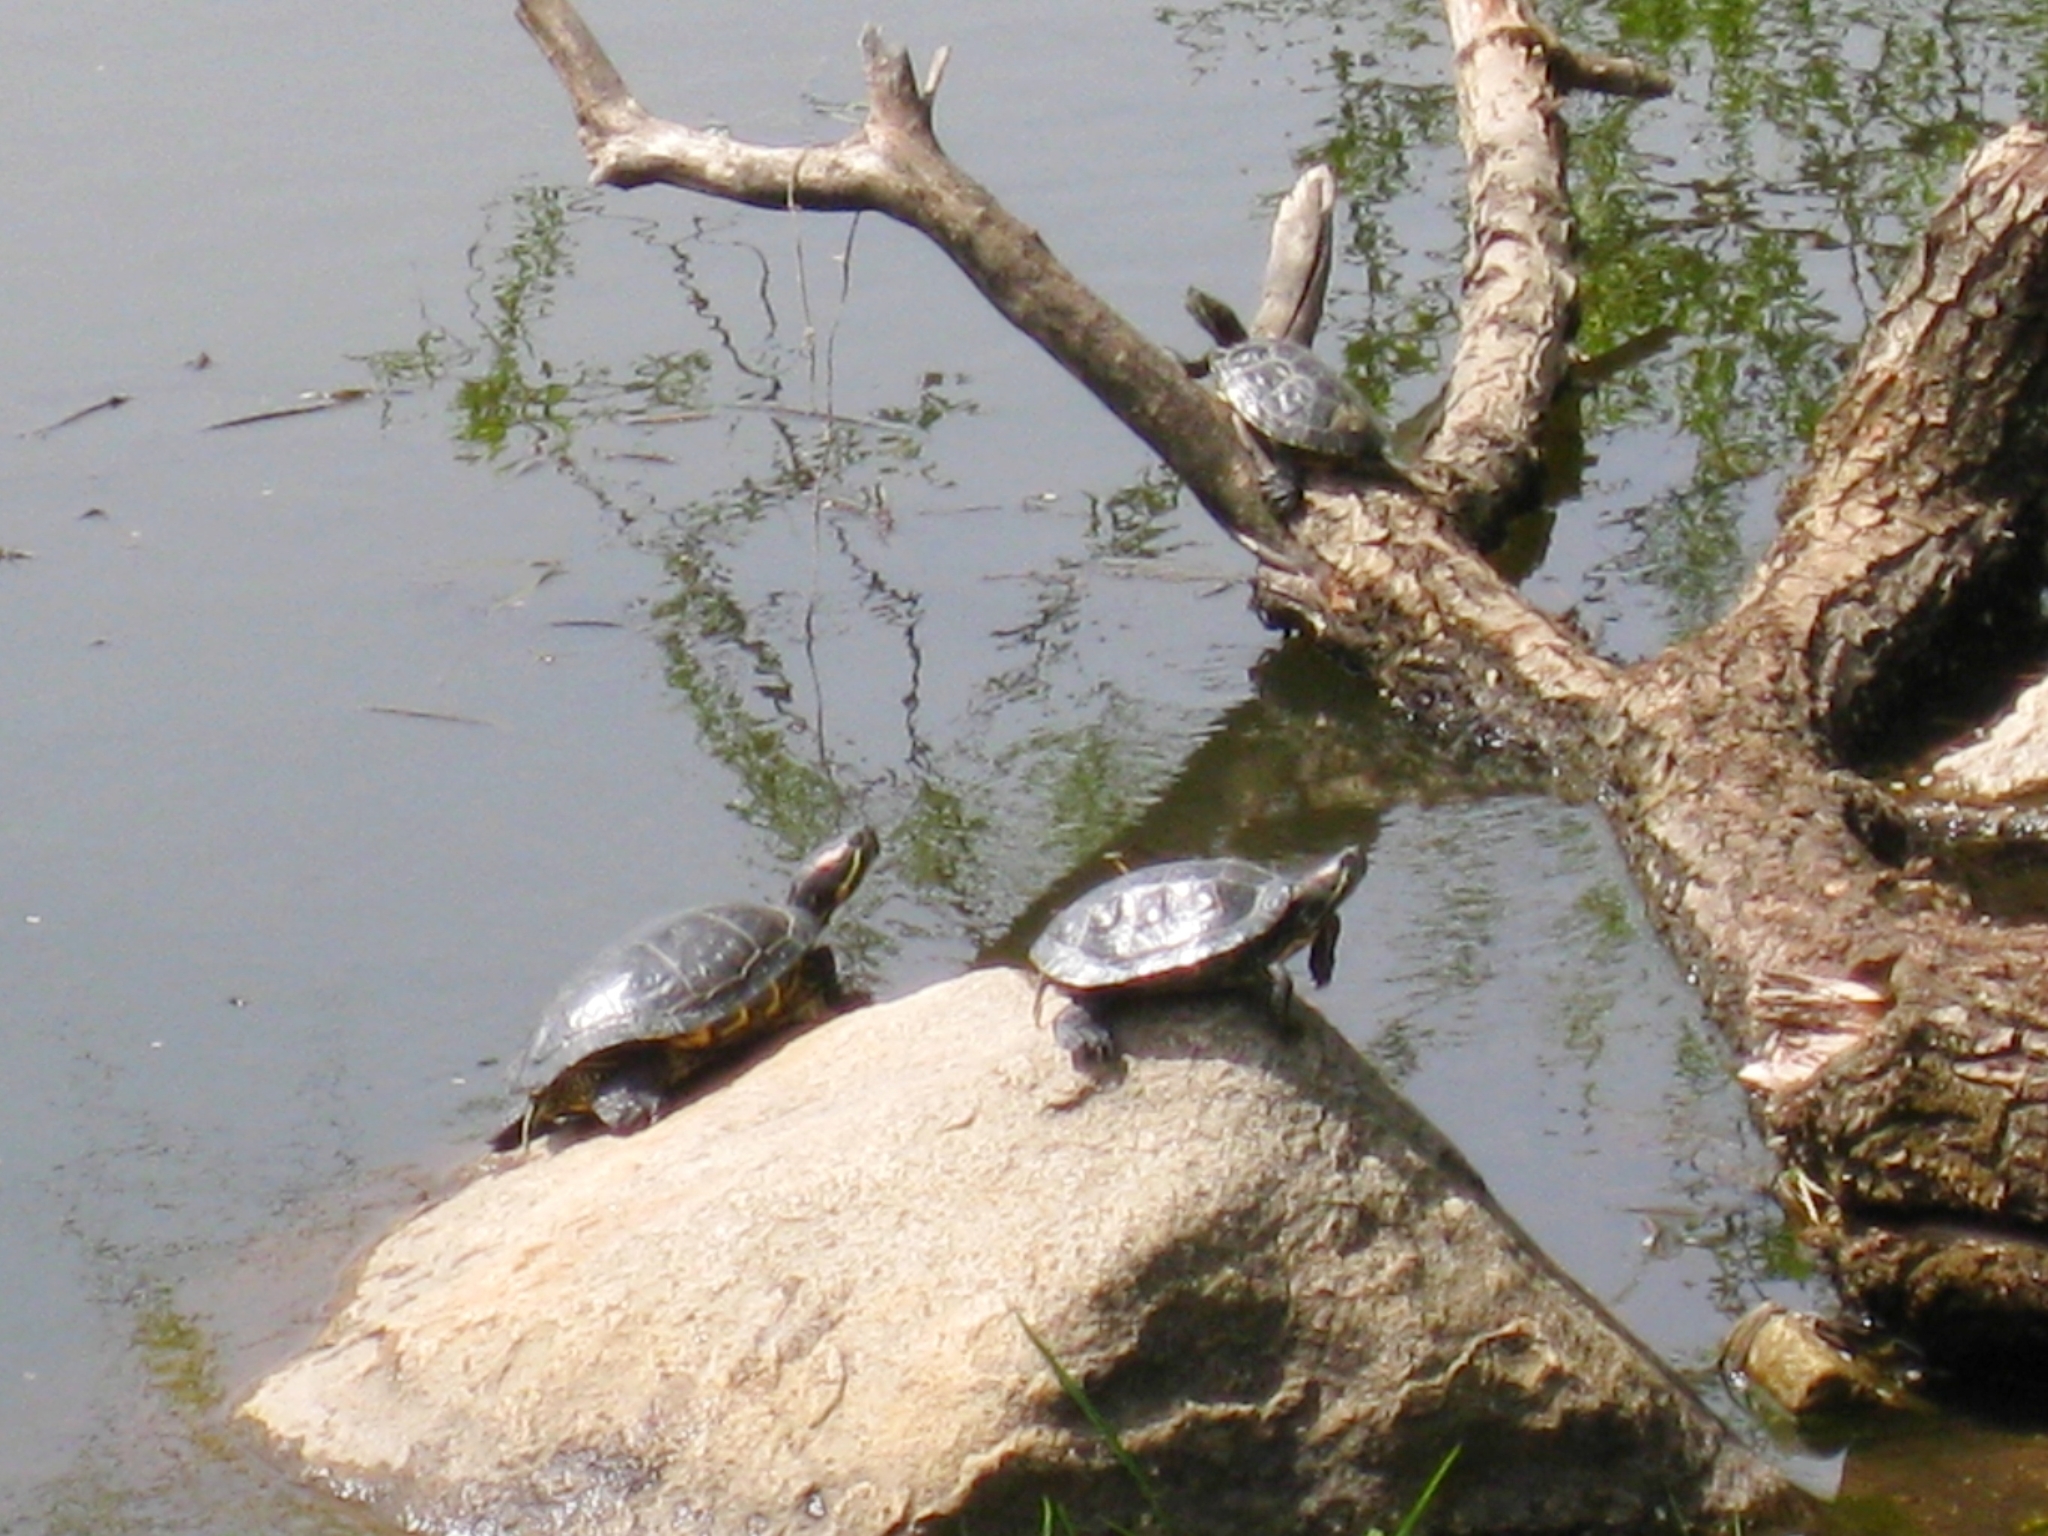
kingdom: Animalia
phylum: Chordata
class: Testudines
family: Emydidae
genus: Trachemys
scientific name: Trachemys scripta
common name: Slider
